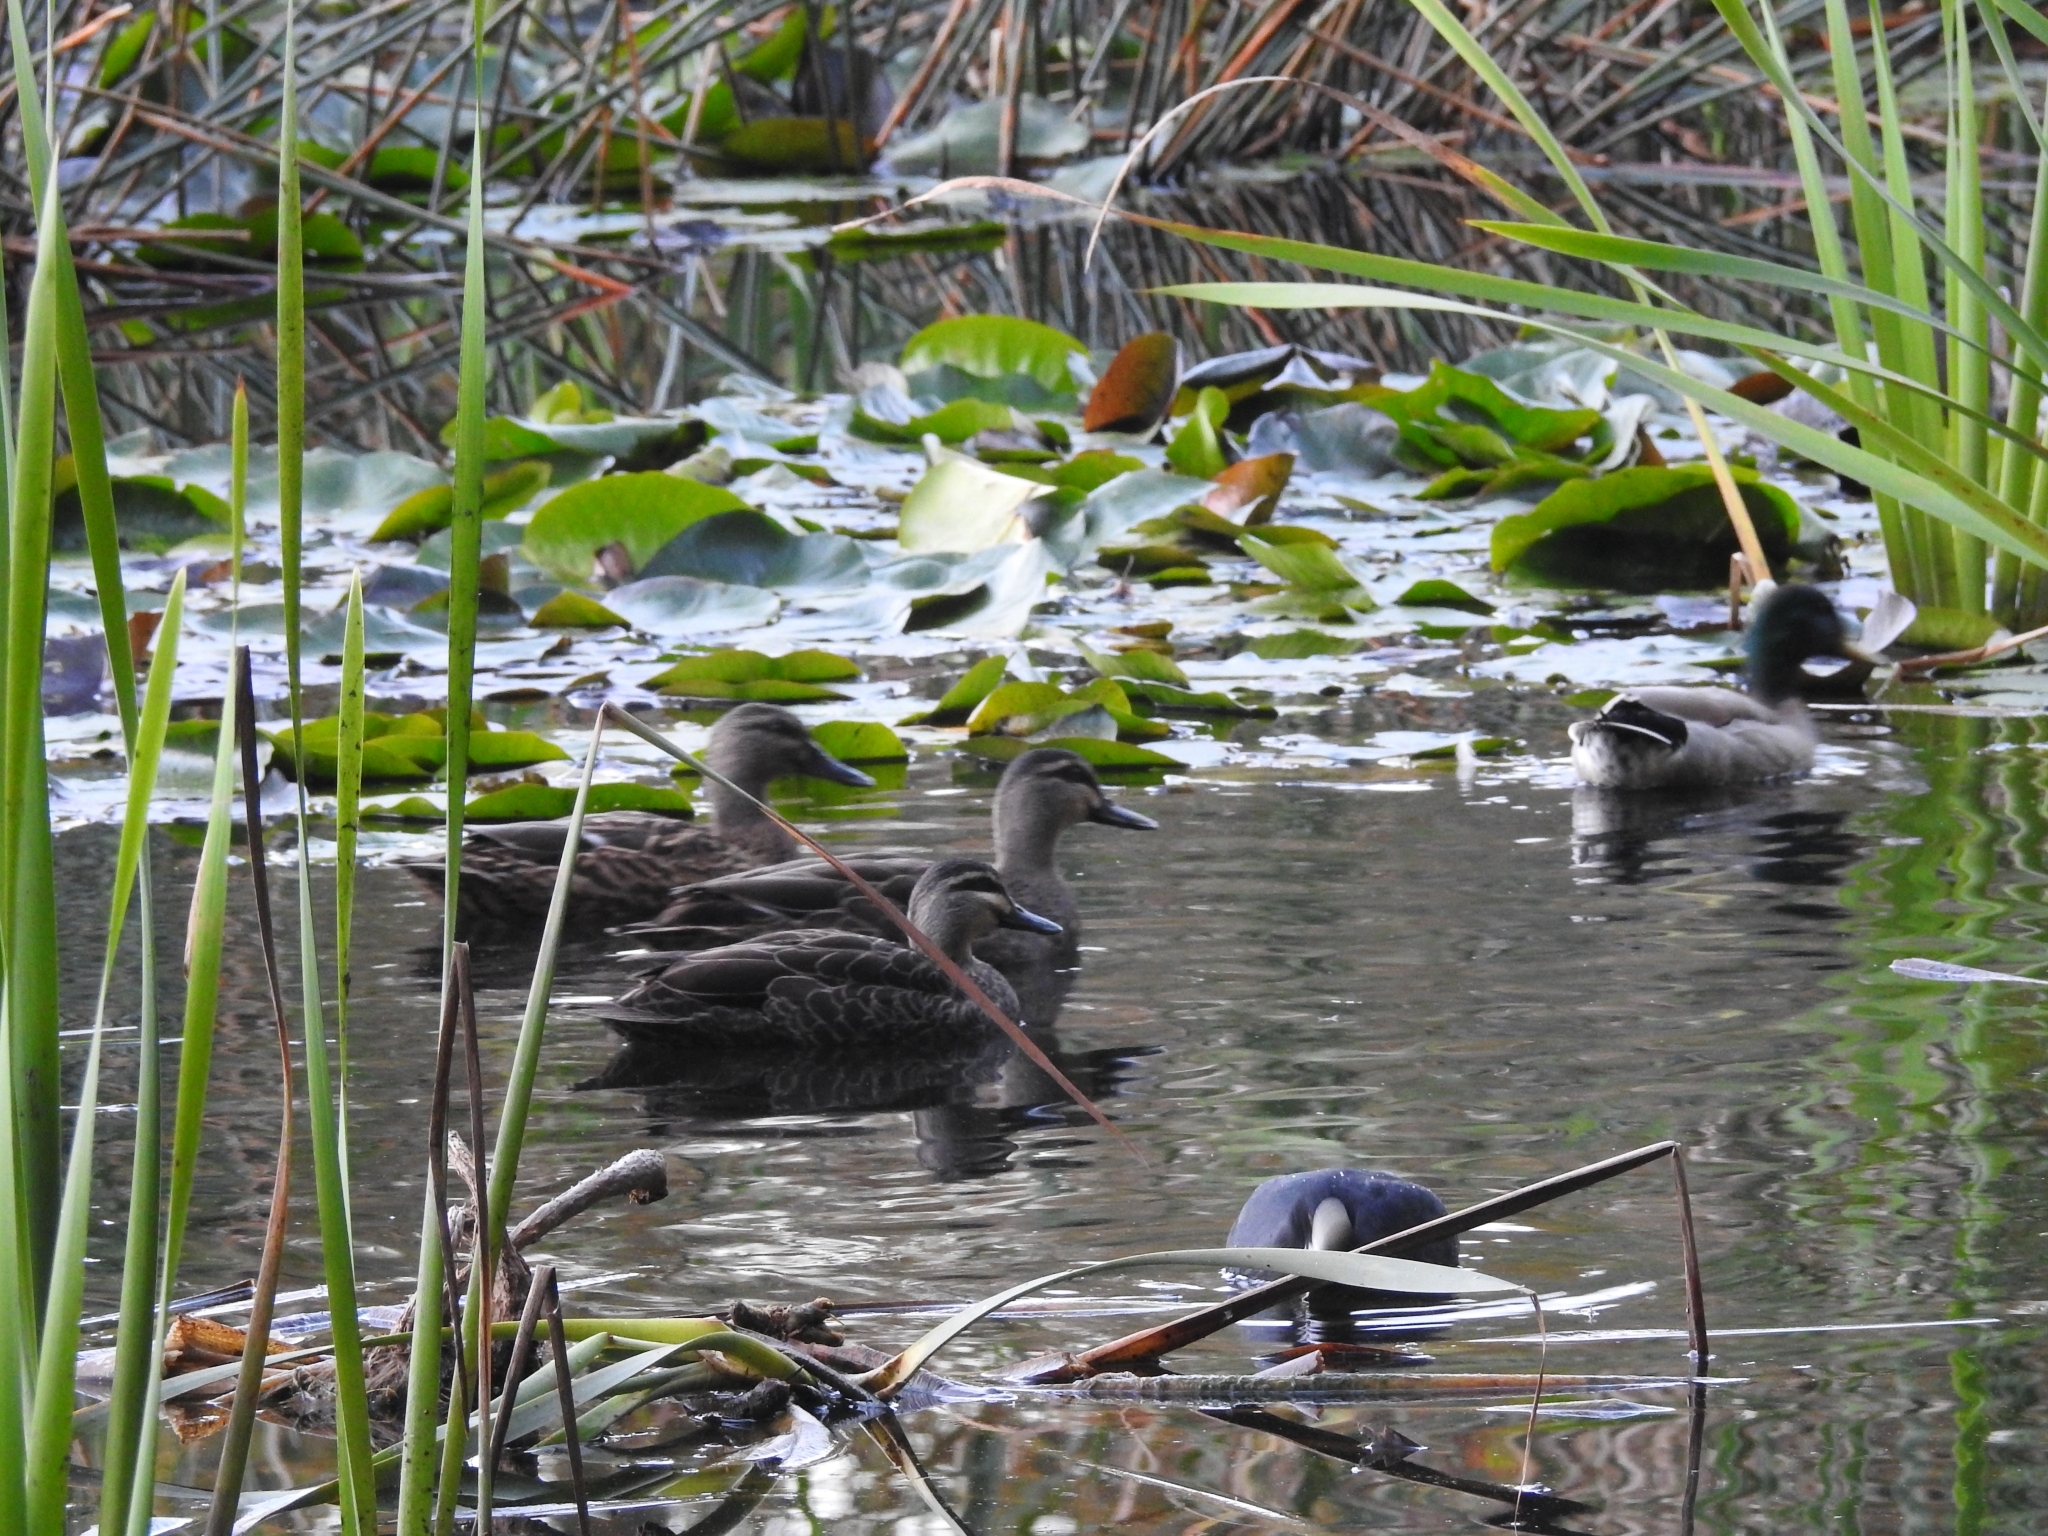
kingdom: Animalia
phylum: Chordata
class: Aves
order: Anseriformes
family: Anatidae
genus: Anas
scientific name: Anas
